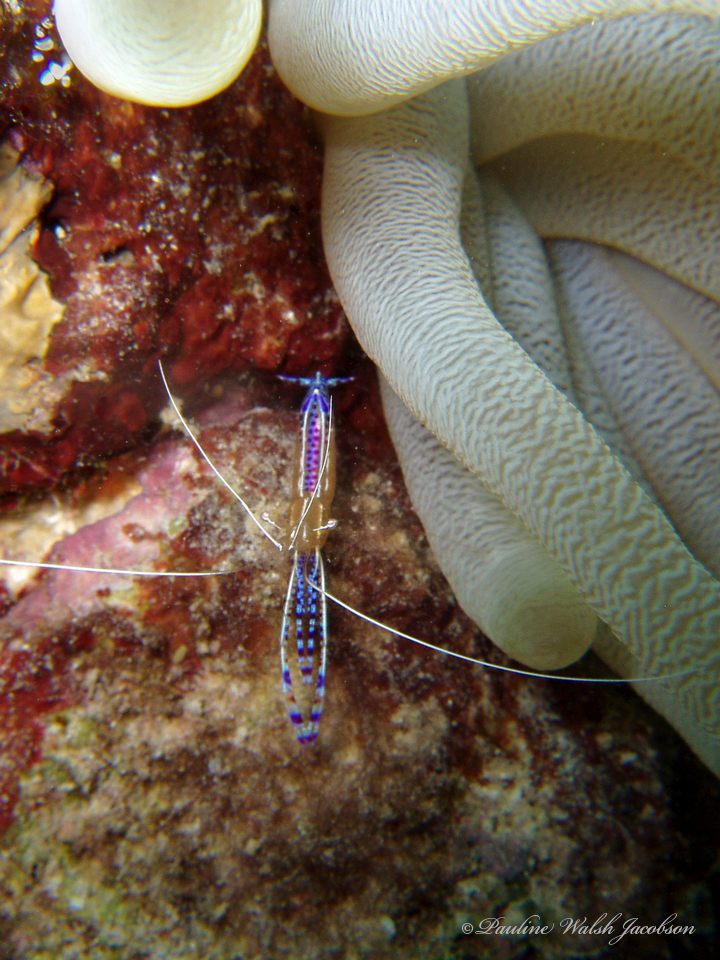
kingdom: Animalia
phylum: Arthropoda
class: Malacostraca
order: Decapoda
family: Palaemonidae
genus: Ancylomenes
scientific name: Ancylomenes pedersoni
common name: Pederson's cleaning shrimp
